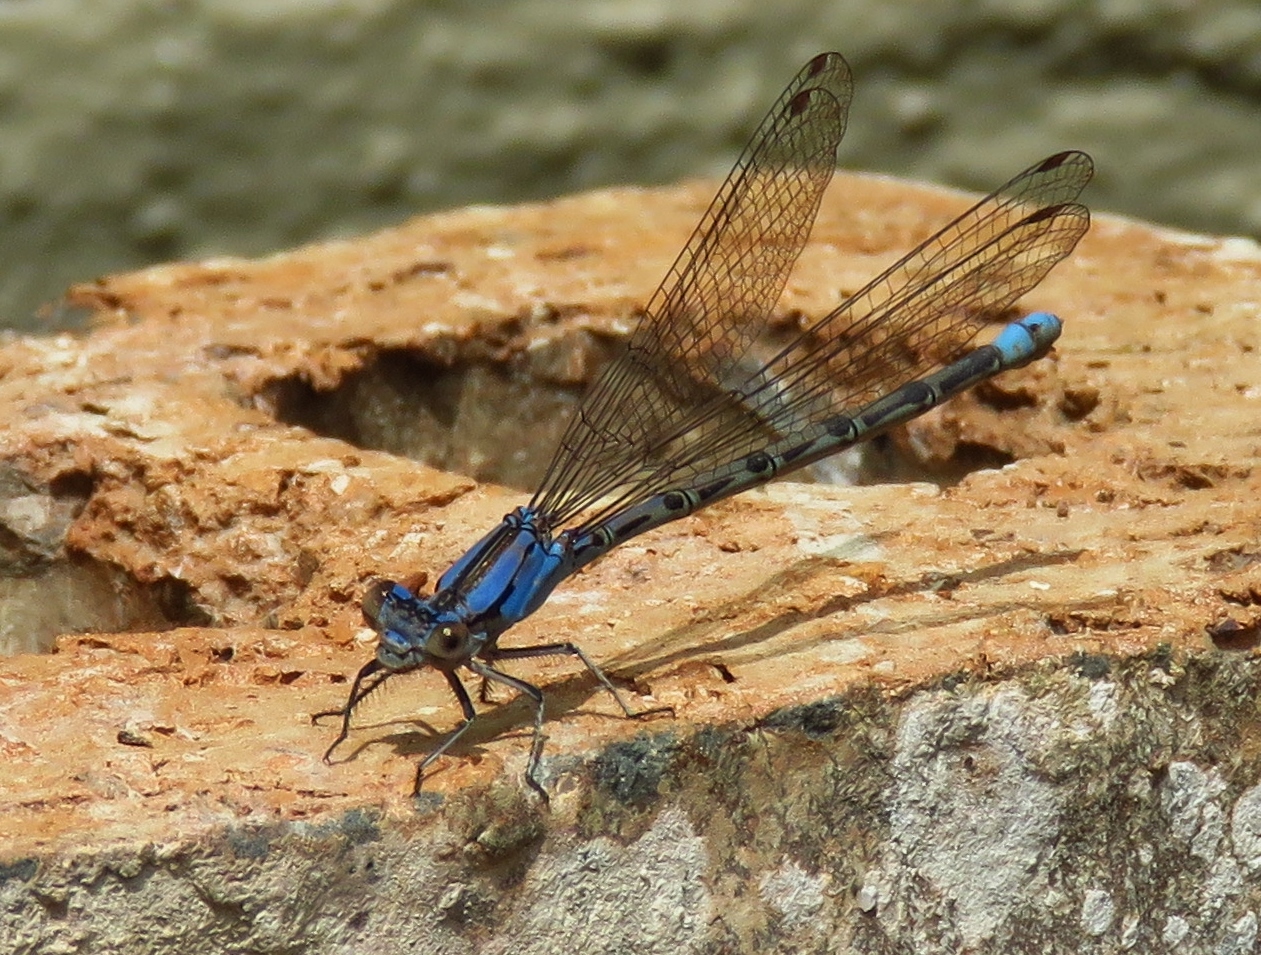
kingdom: Animalia
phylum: Arthropoda
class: Insecta
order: Odonata
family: Coenagrionidae
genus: Argia
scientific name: Argia funebris
